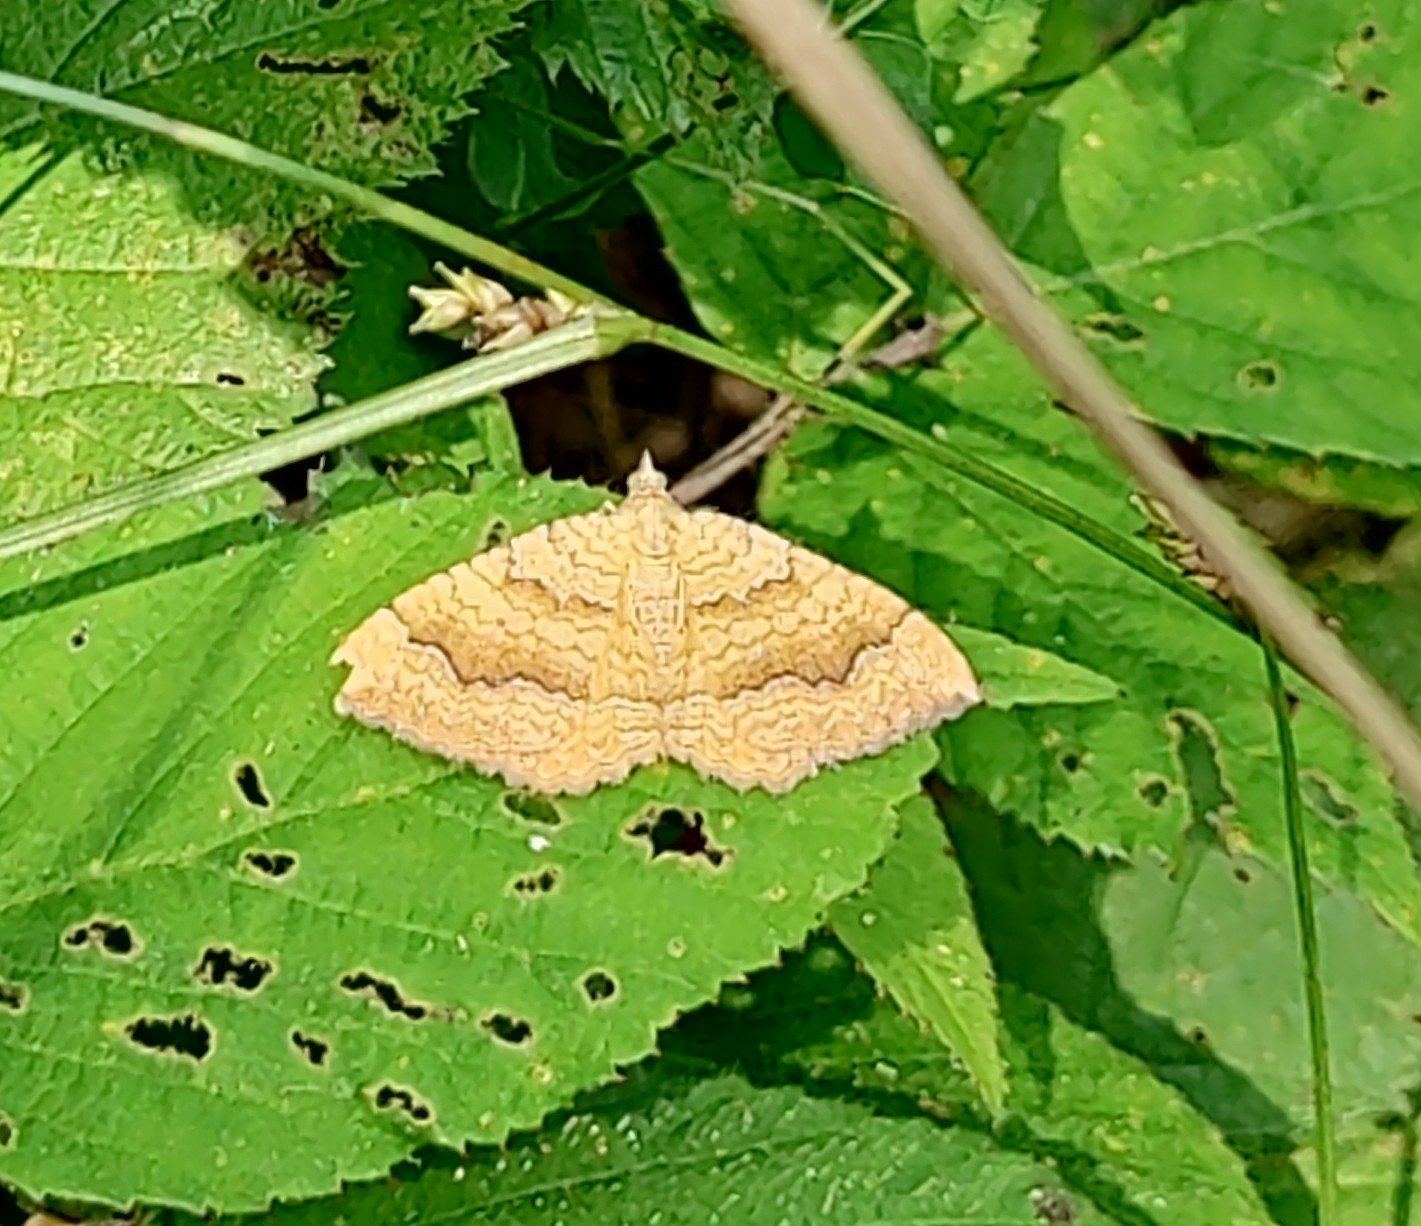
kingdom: Animalia
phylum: Arthropoda
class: Insecta
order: Lepidoptera
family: Geometridae
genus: Camptogramma
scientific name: Camptogramma bilineata
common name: Yellow shell
